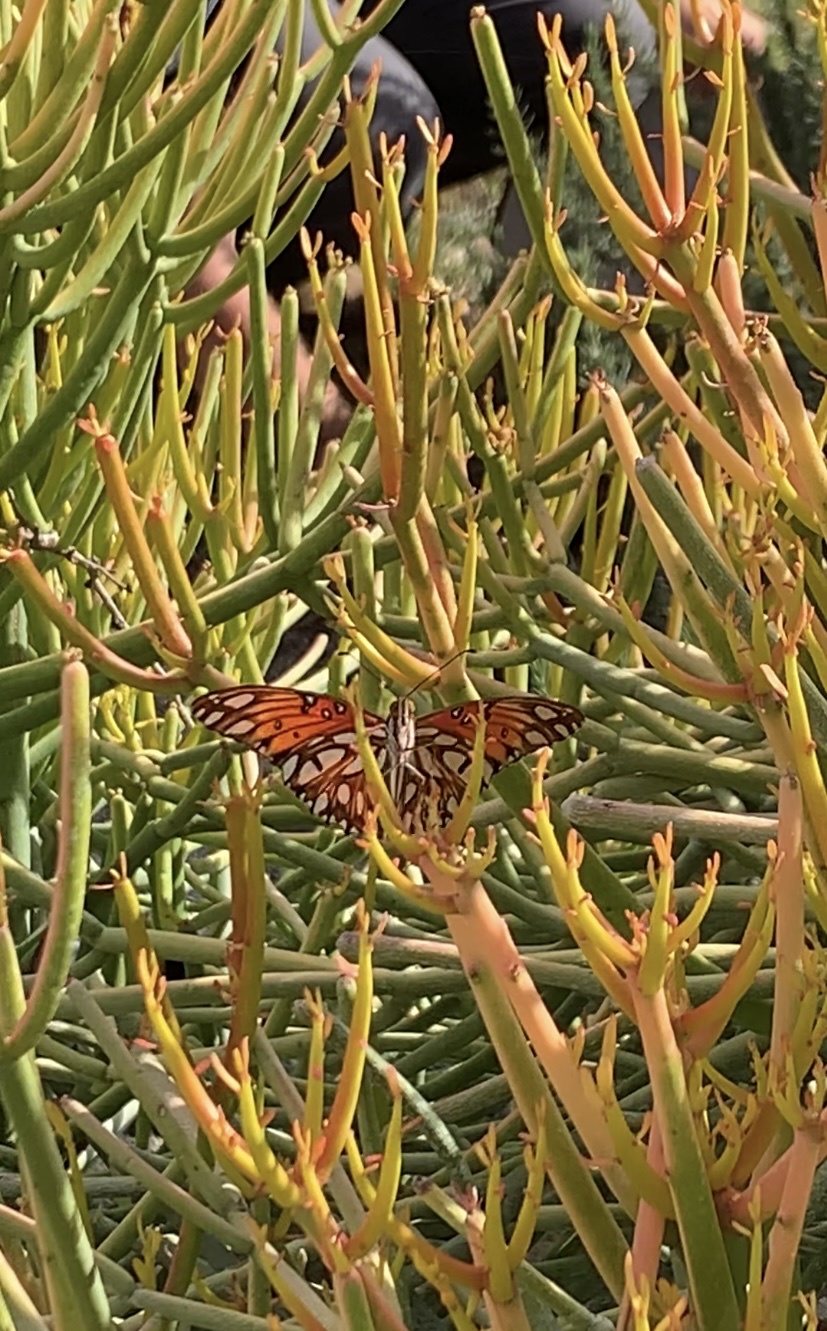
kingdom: Animalia
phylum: Arthropoda
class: Insecta
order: Lepidoptera
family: Nymphalidae
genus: Dione
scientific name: Dione vanillae
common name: Gulf fritillary
